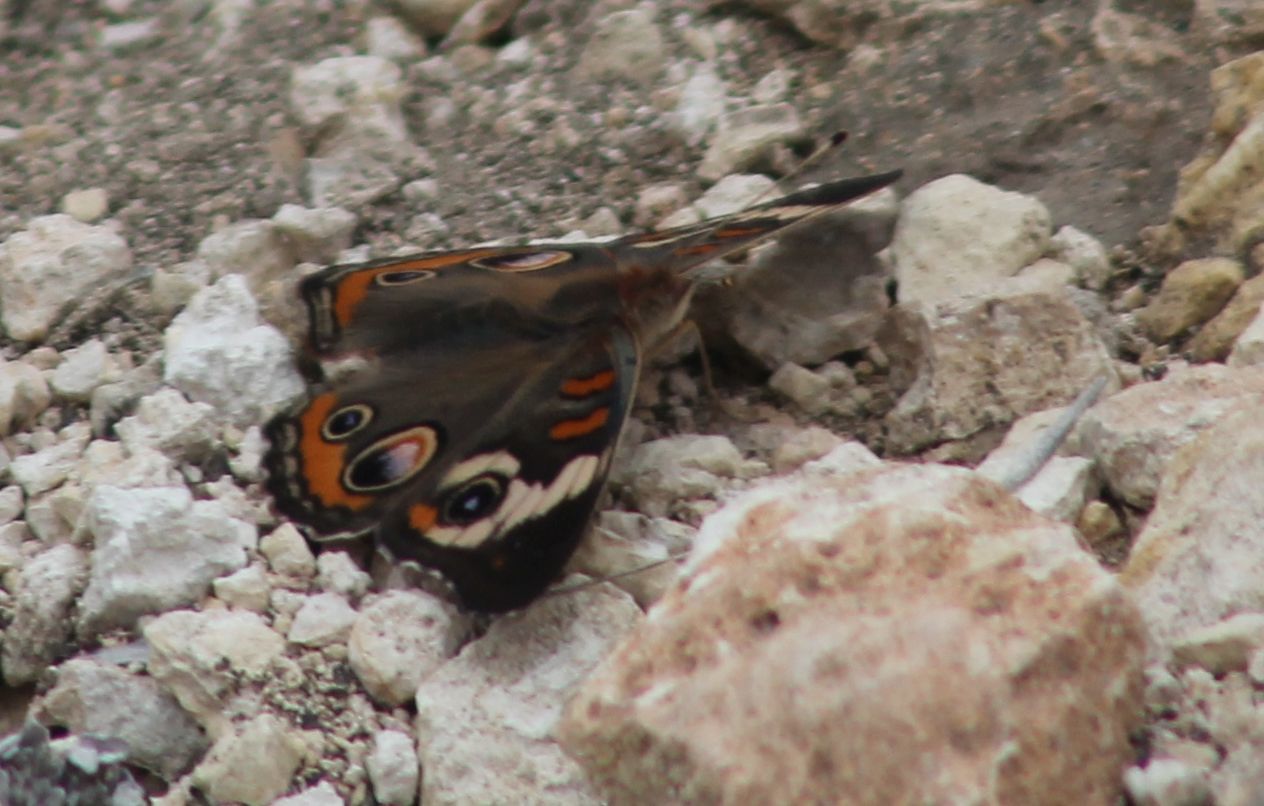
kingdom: Animalia
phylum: Arthropoda
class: Insecta
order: Lepidoptera
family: Nymphalidae
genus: Junonia
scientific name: Junonia coenia
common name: Common buckeye
